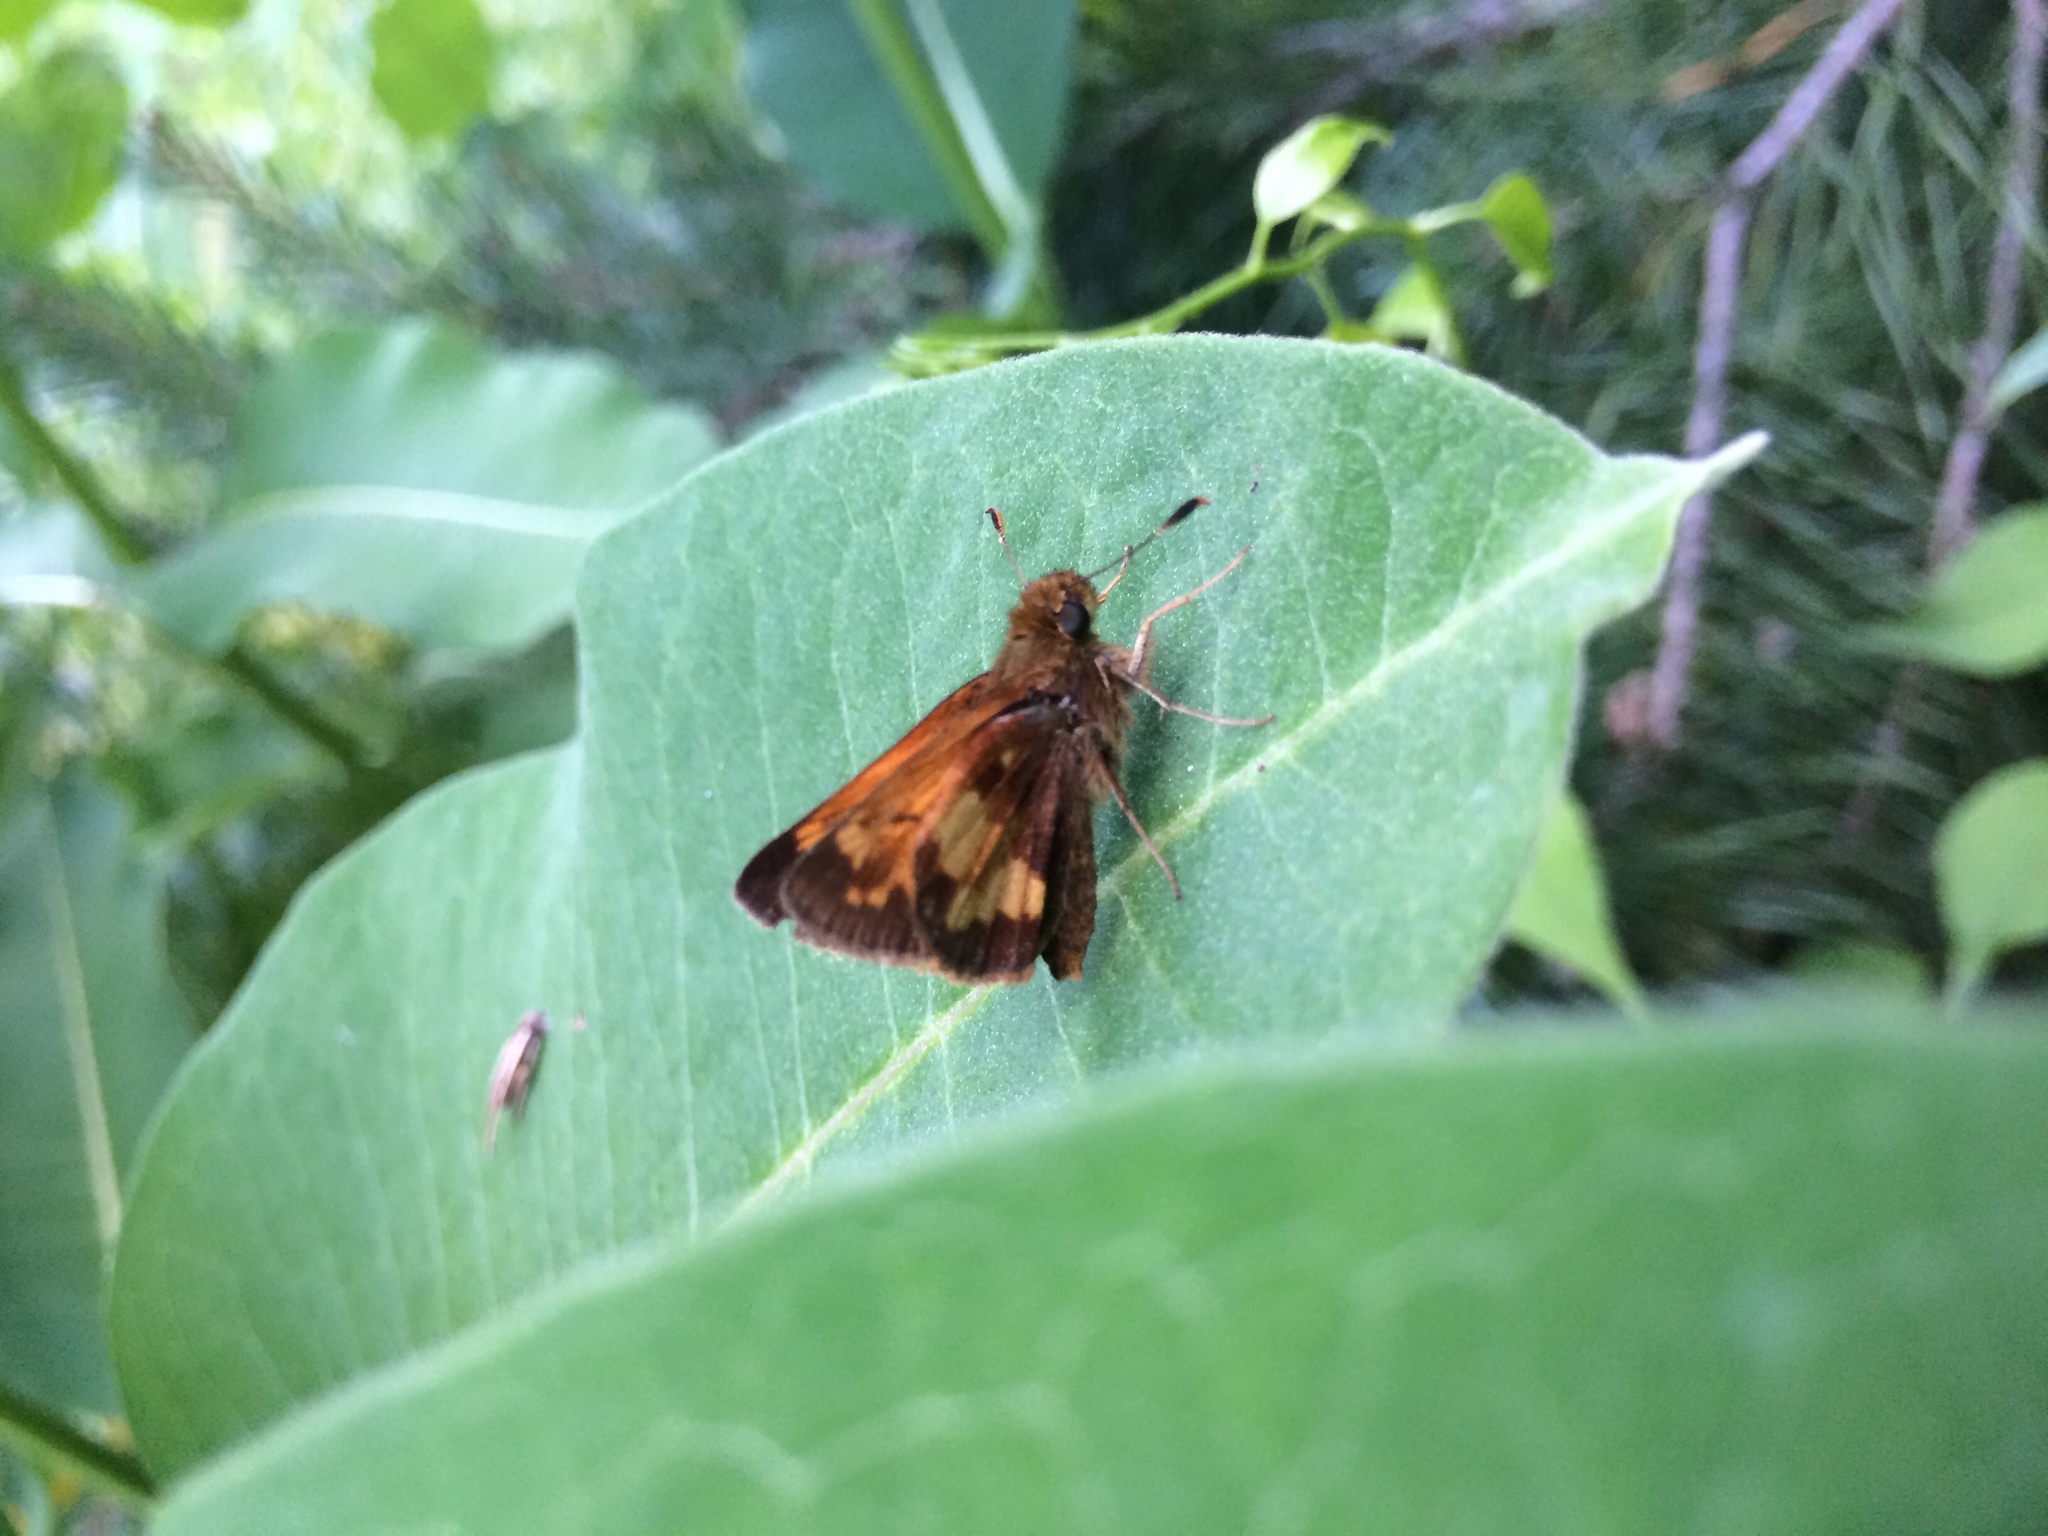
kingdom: Animalia
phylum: Arthropoda
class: Insecta
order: Lepidoptera
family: Hesperiidae
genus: Lon
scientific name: Lon hobomok
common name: Hobomok skipper
